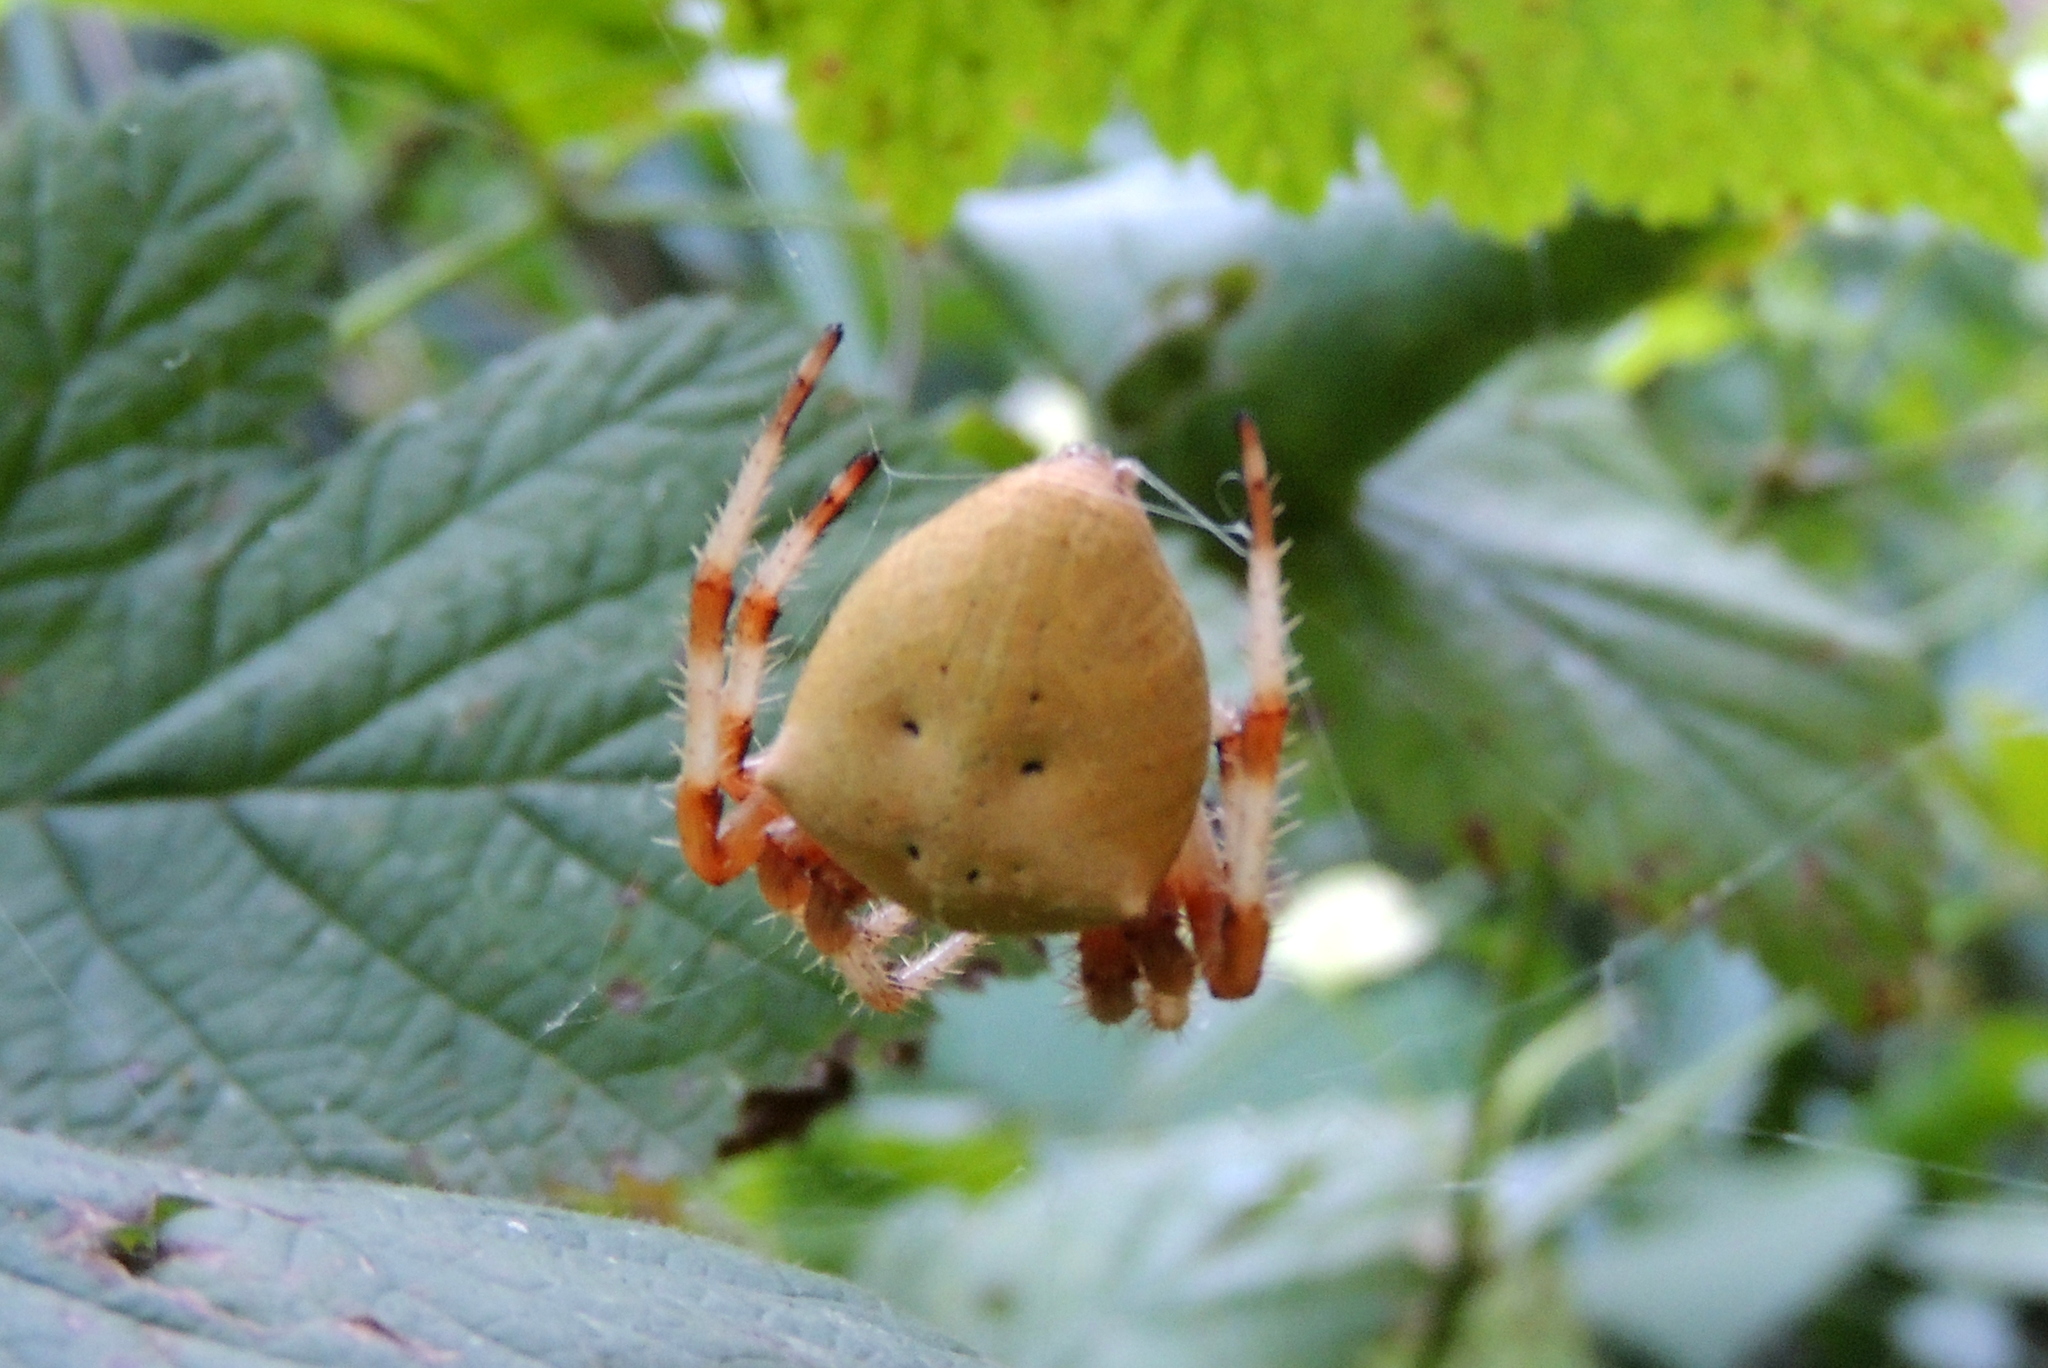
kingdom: Animalia
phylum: Arthropoda
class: Arachnida
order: Araneae
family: Araneidae
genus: Araneus
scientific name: Araneus tartaricus
